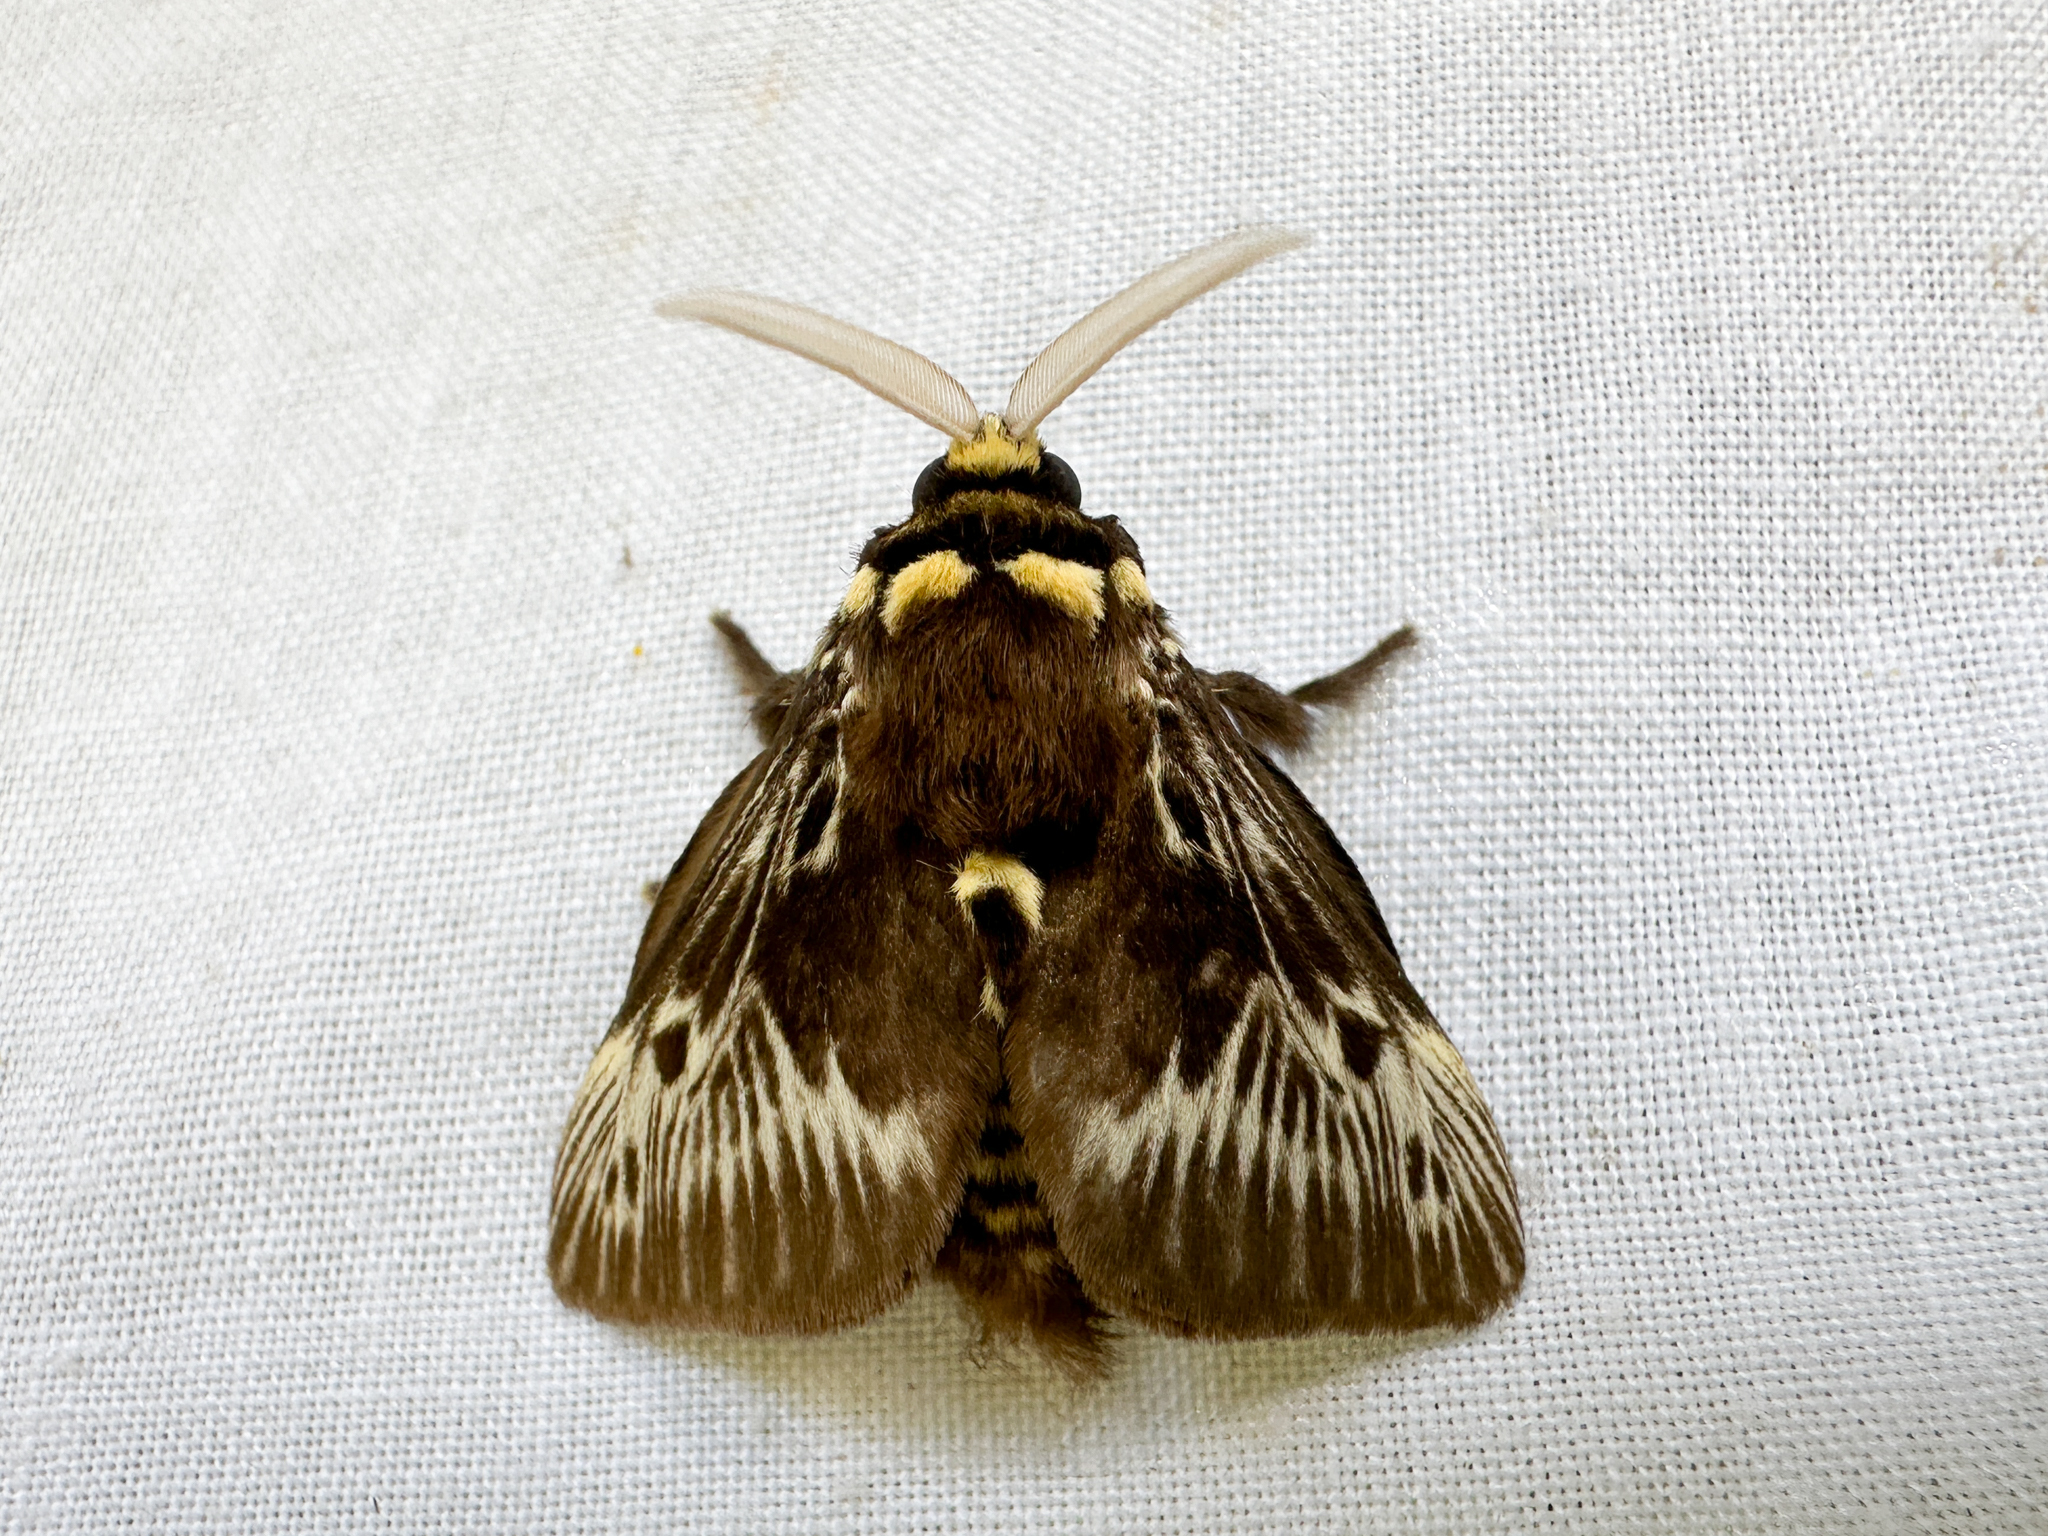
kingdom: Animalia
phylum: Arthropoda
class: Insecta
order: Lepidoptera
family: Megalopygidae
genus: Megalopyge
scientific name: Megalopyge albicollis
